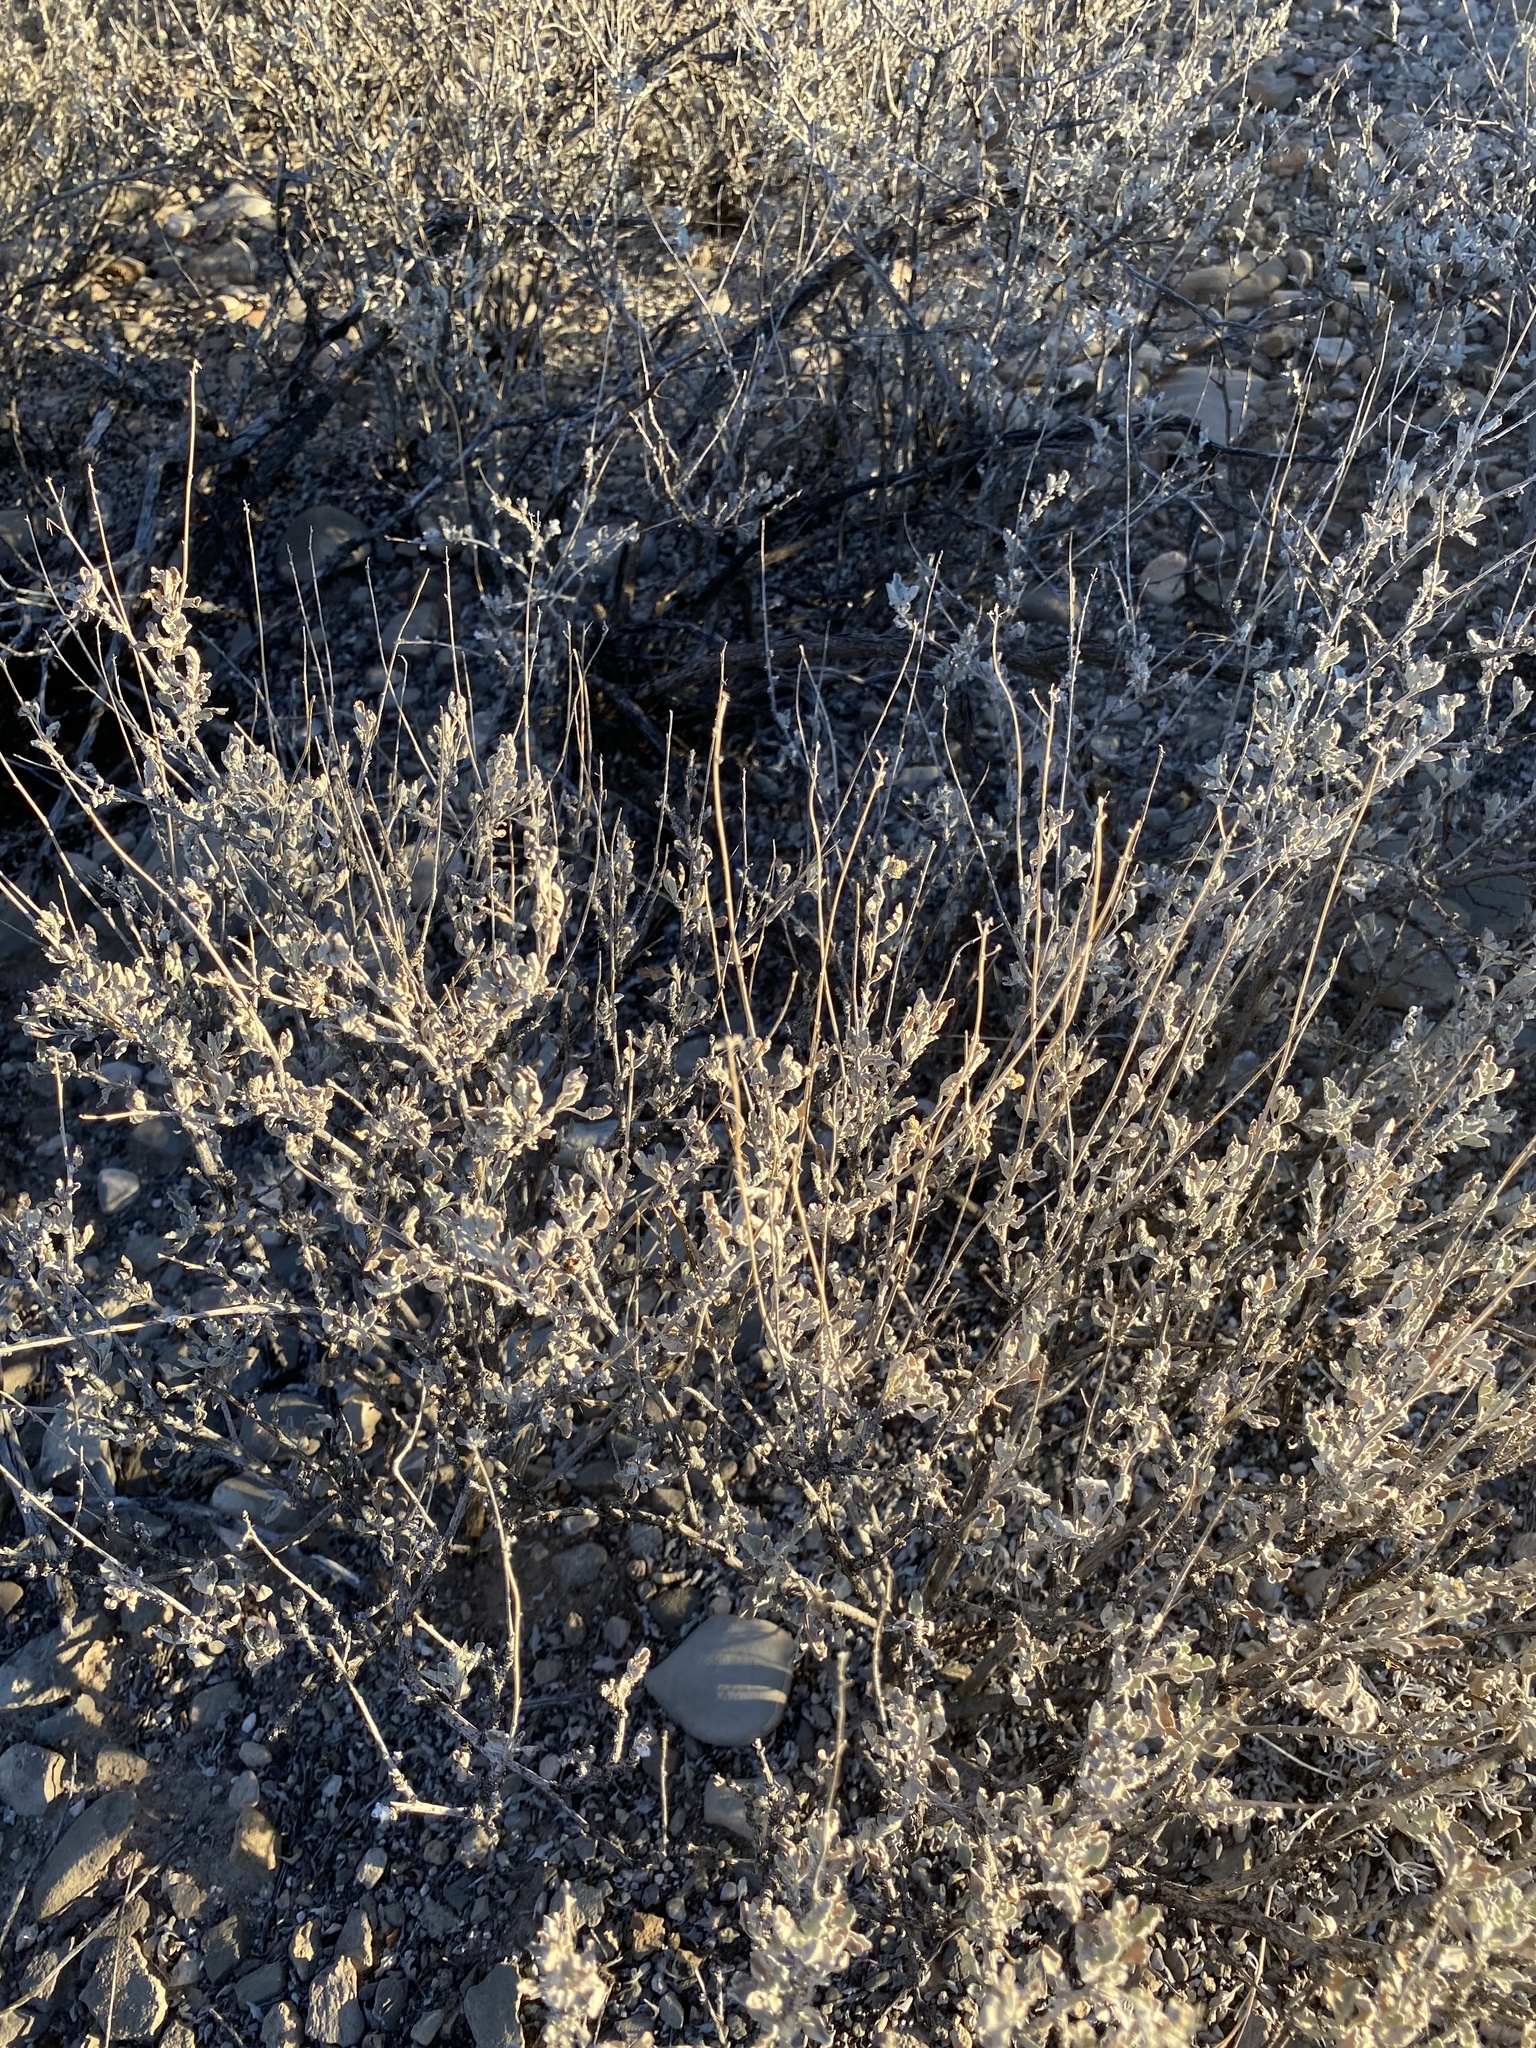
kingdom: Plantae
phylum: Tracheophyta
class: Magnoliopsida
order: Asterales
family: Asteraceae
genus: Parthenium
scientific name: Parthenium incanum
